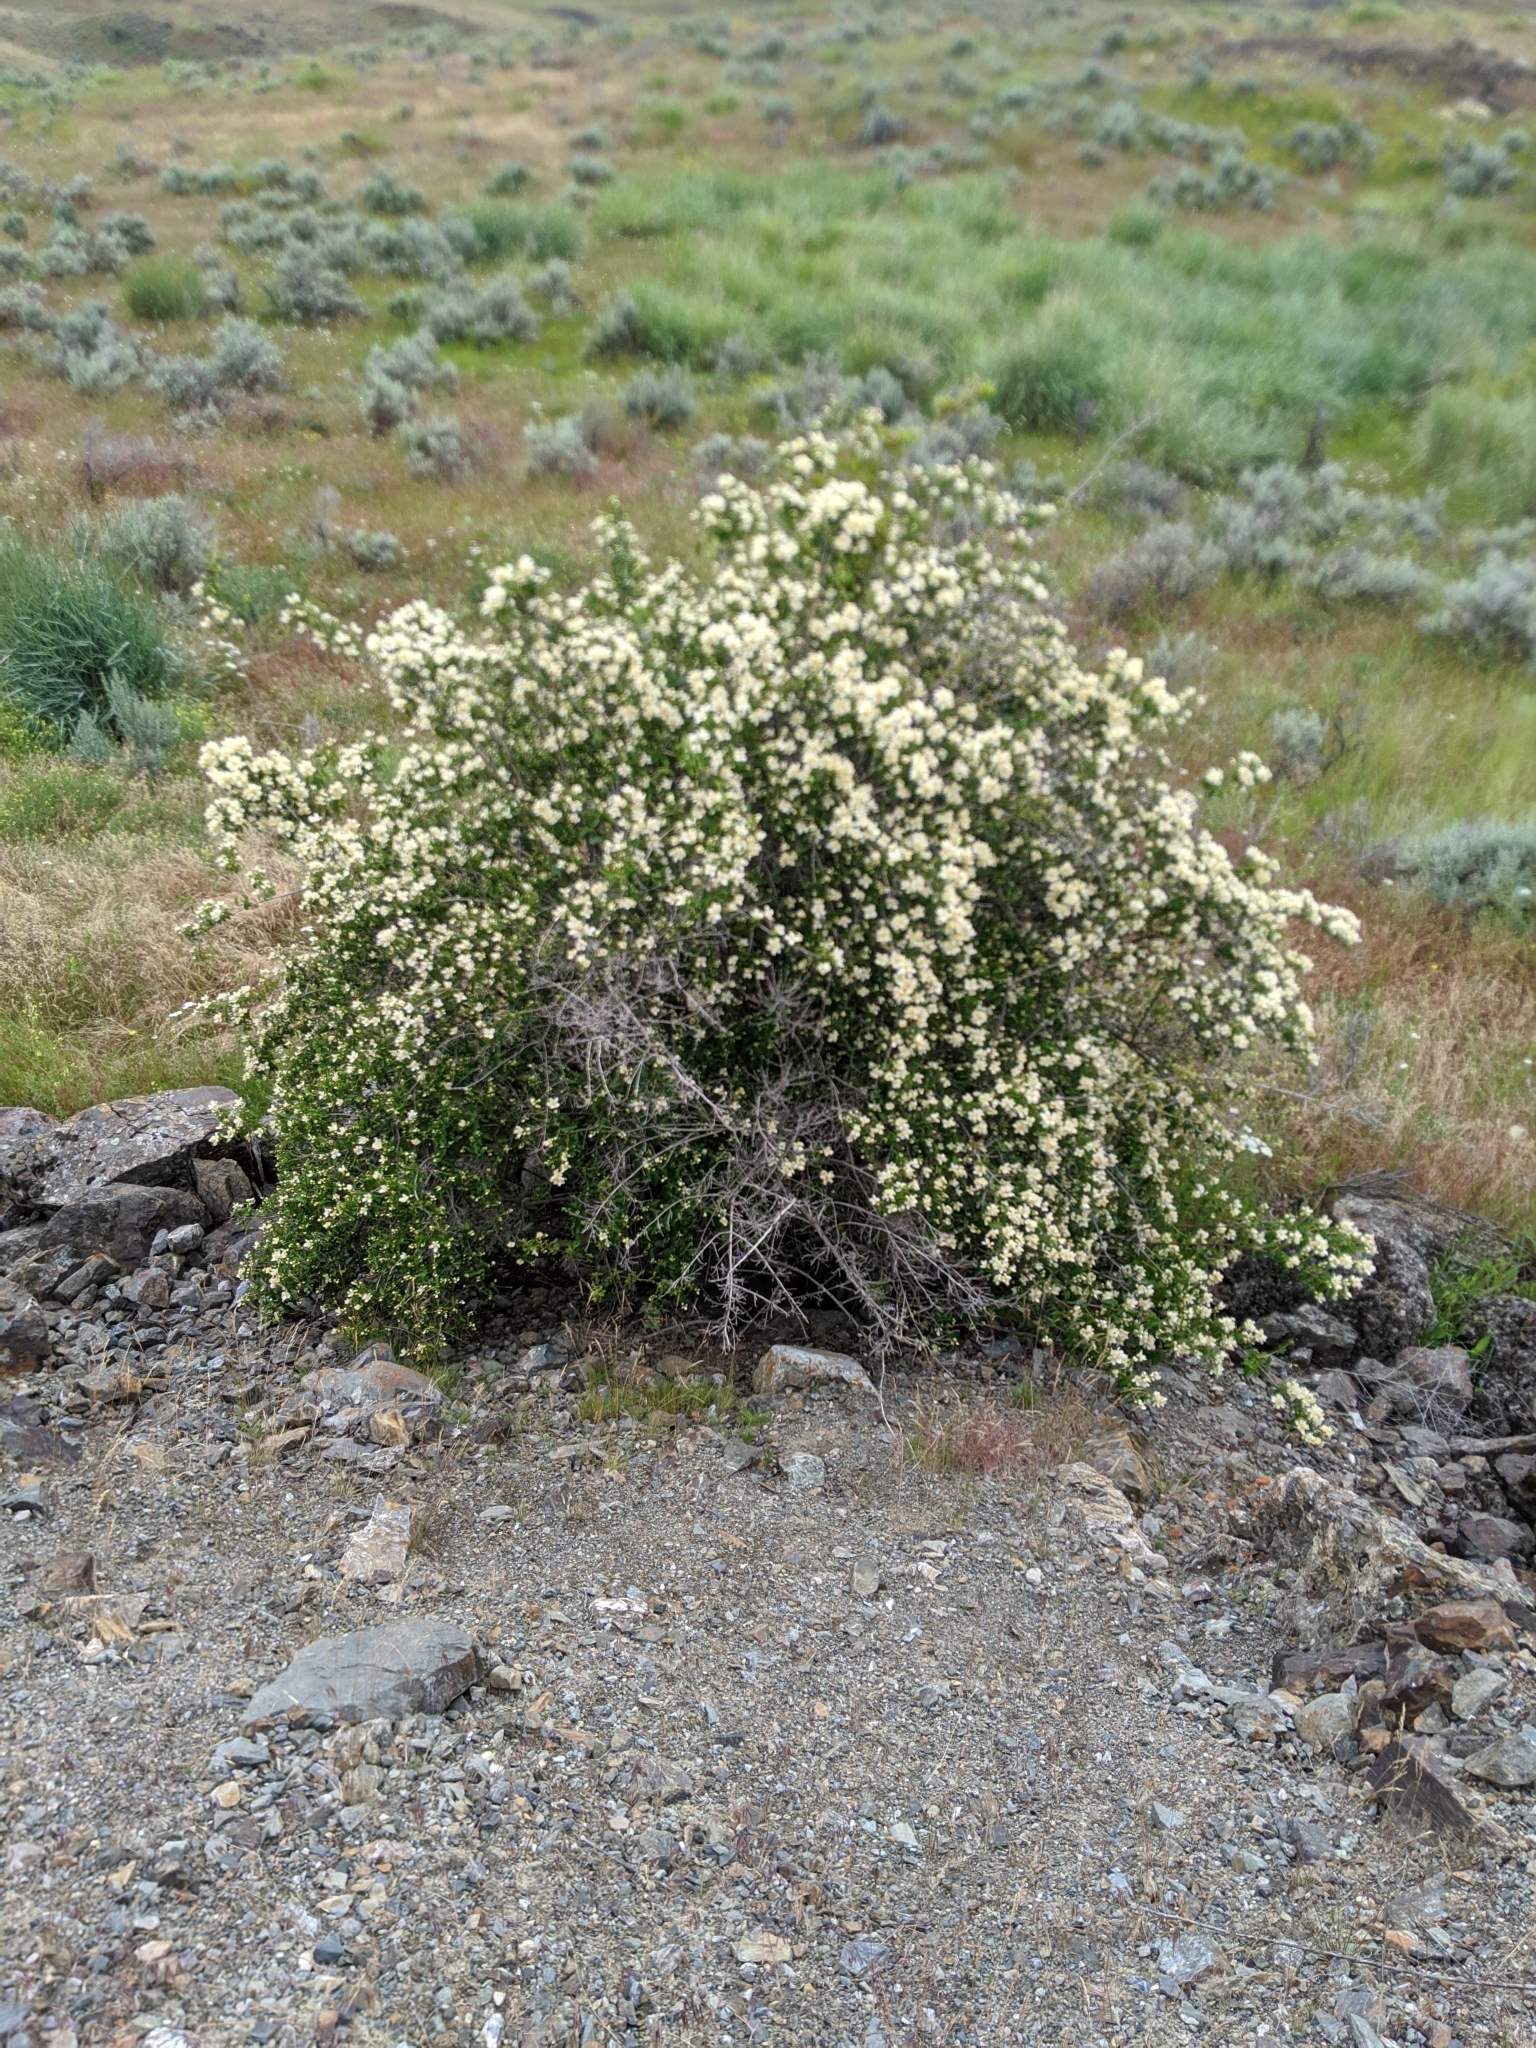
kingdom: Plantae
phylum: Tracheophyta
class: Magnoliopsida
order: Cornales
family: Hydrangeaceae
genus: Philadelphus
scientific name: Philadelphus lewisii
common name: Lewis's mock orange
